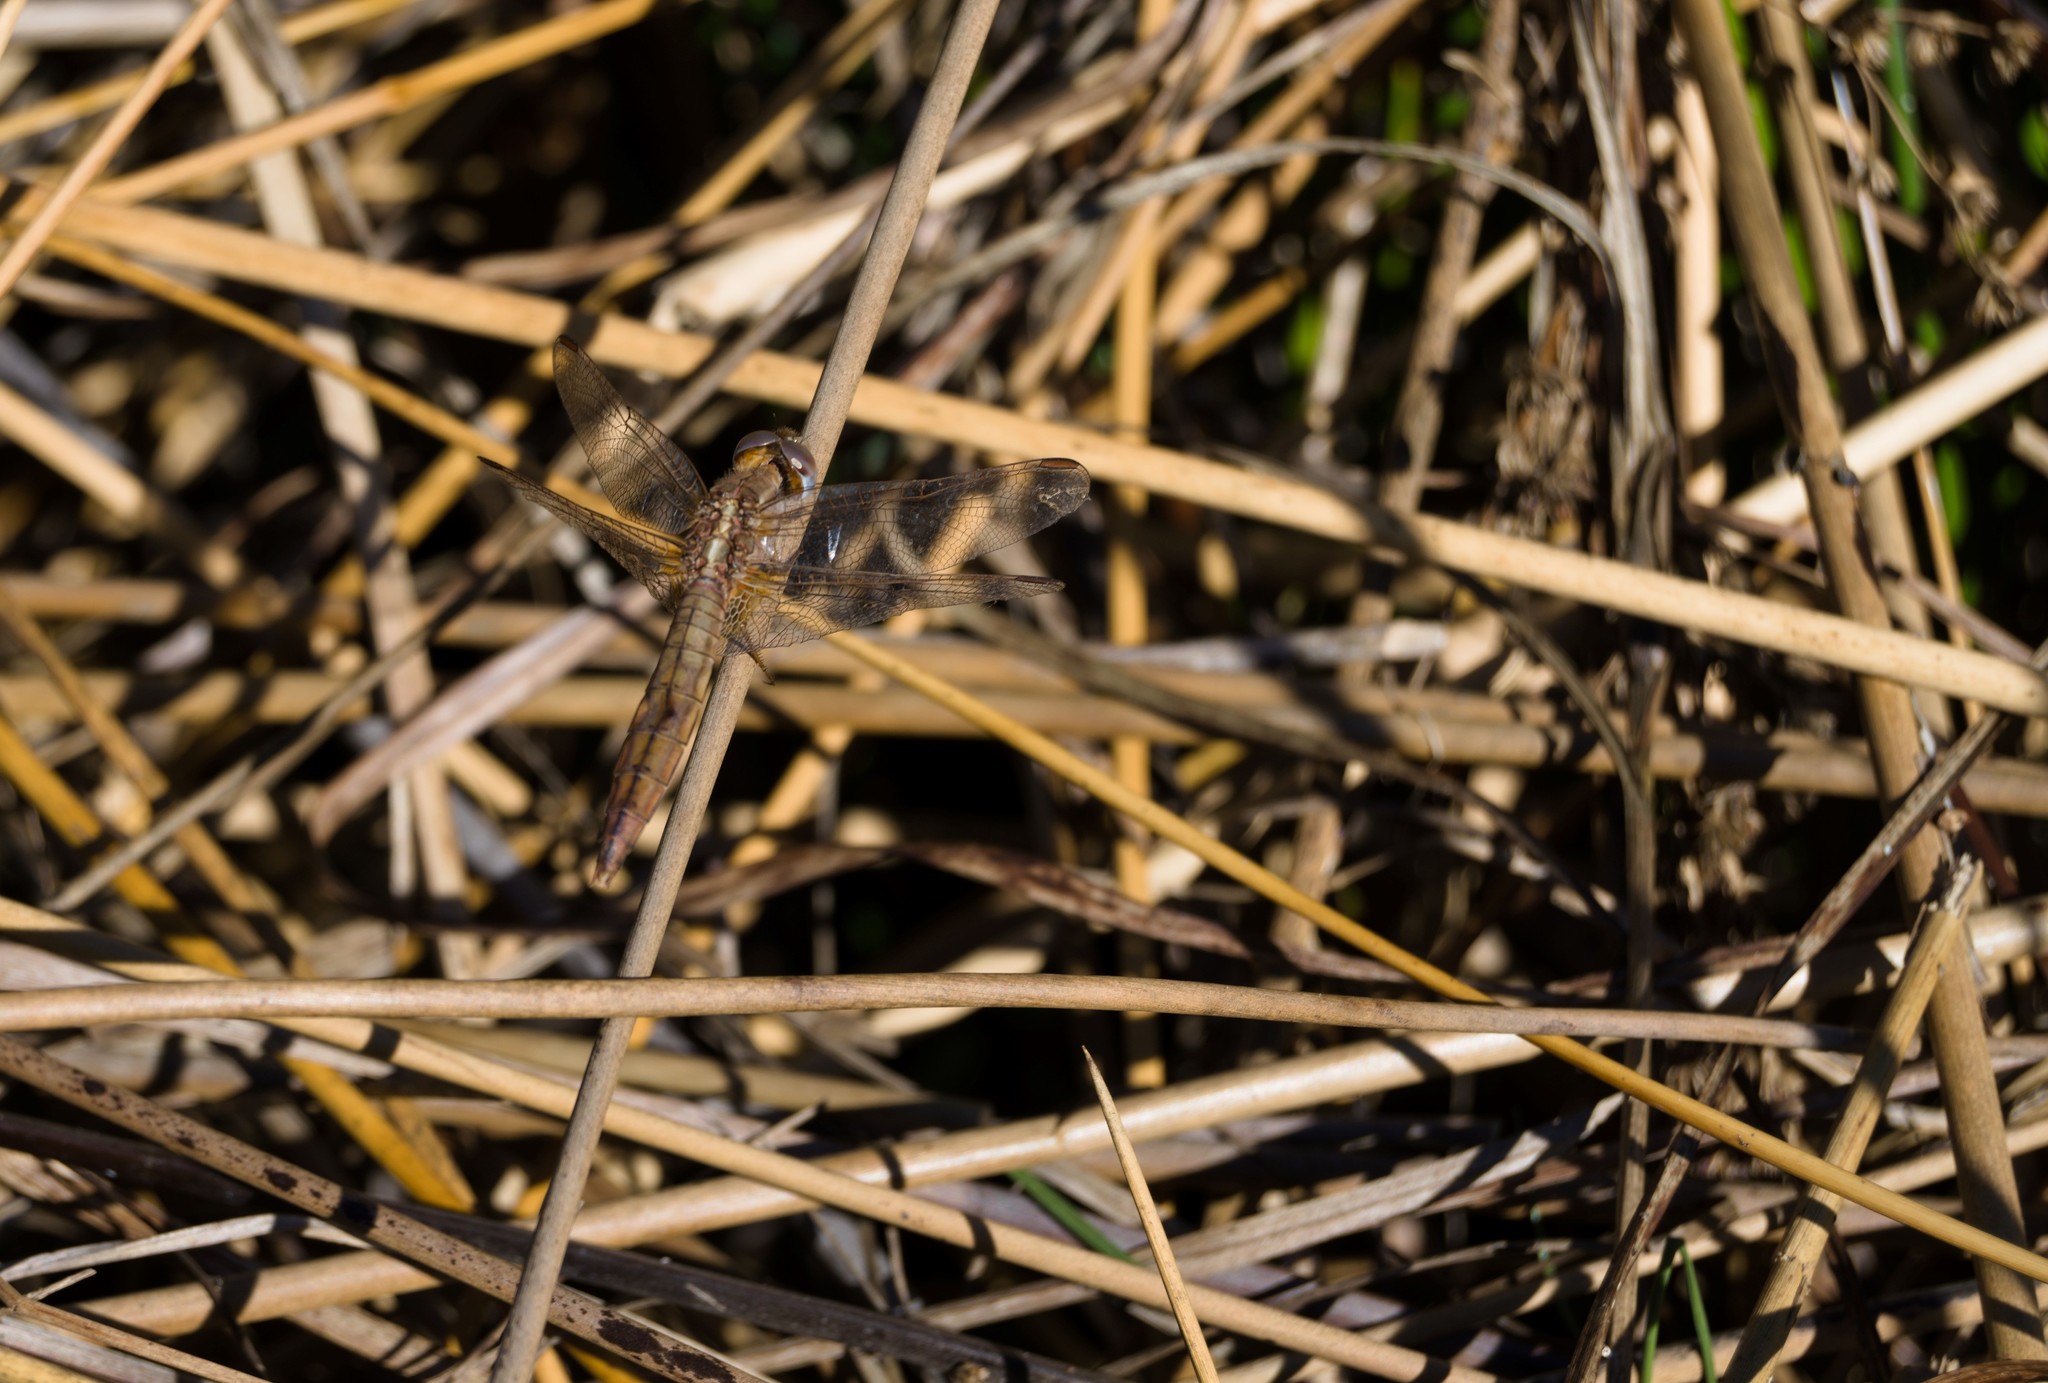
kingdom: Animalia
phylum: Arthropoda
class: Insecta
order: Odonata
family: Libellulidae
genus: Crocothemis
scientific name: Crocothemis erythraea
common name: Scarlet dragonfly
